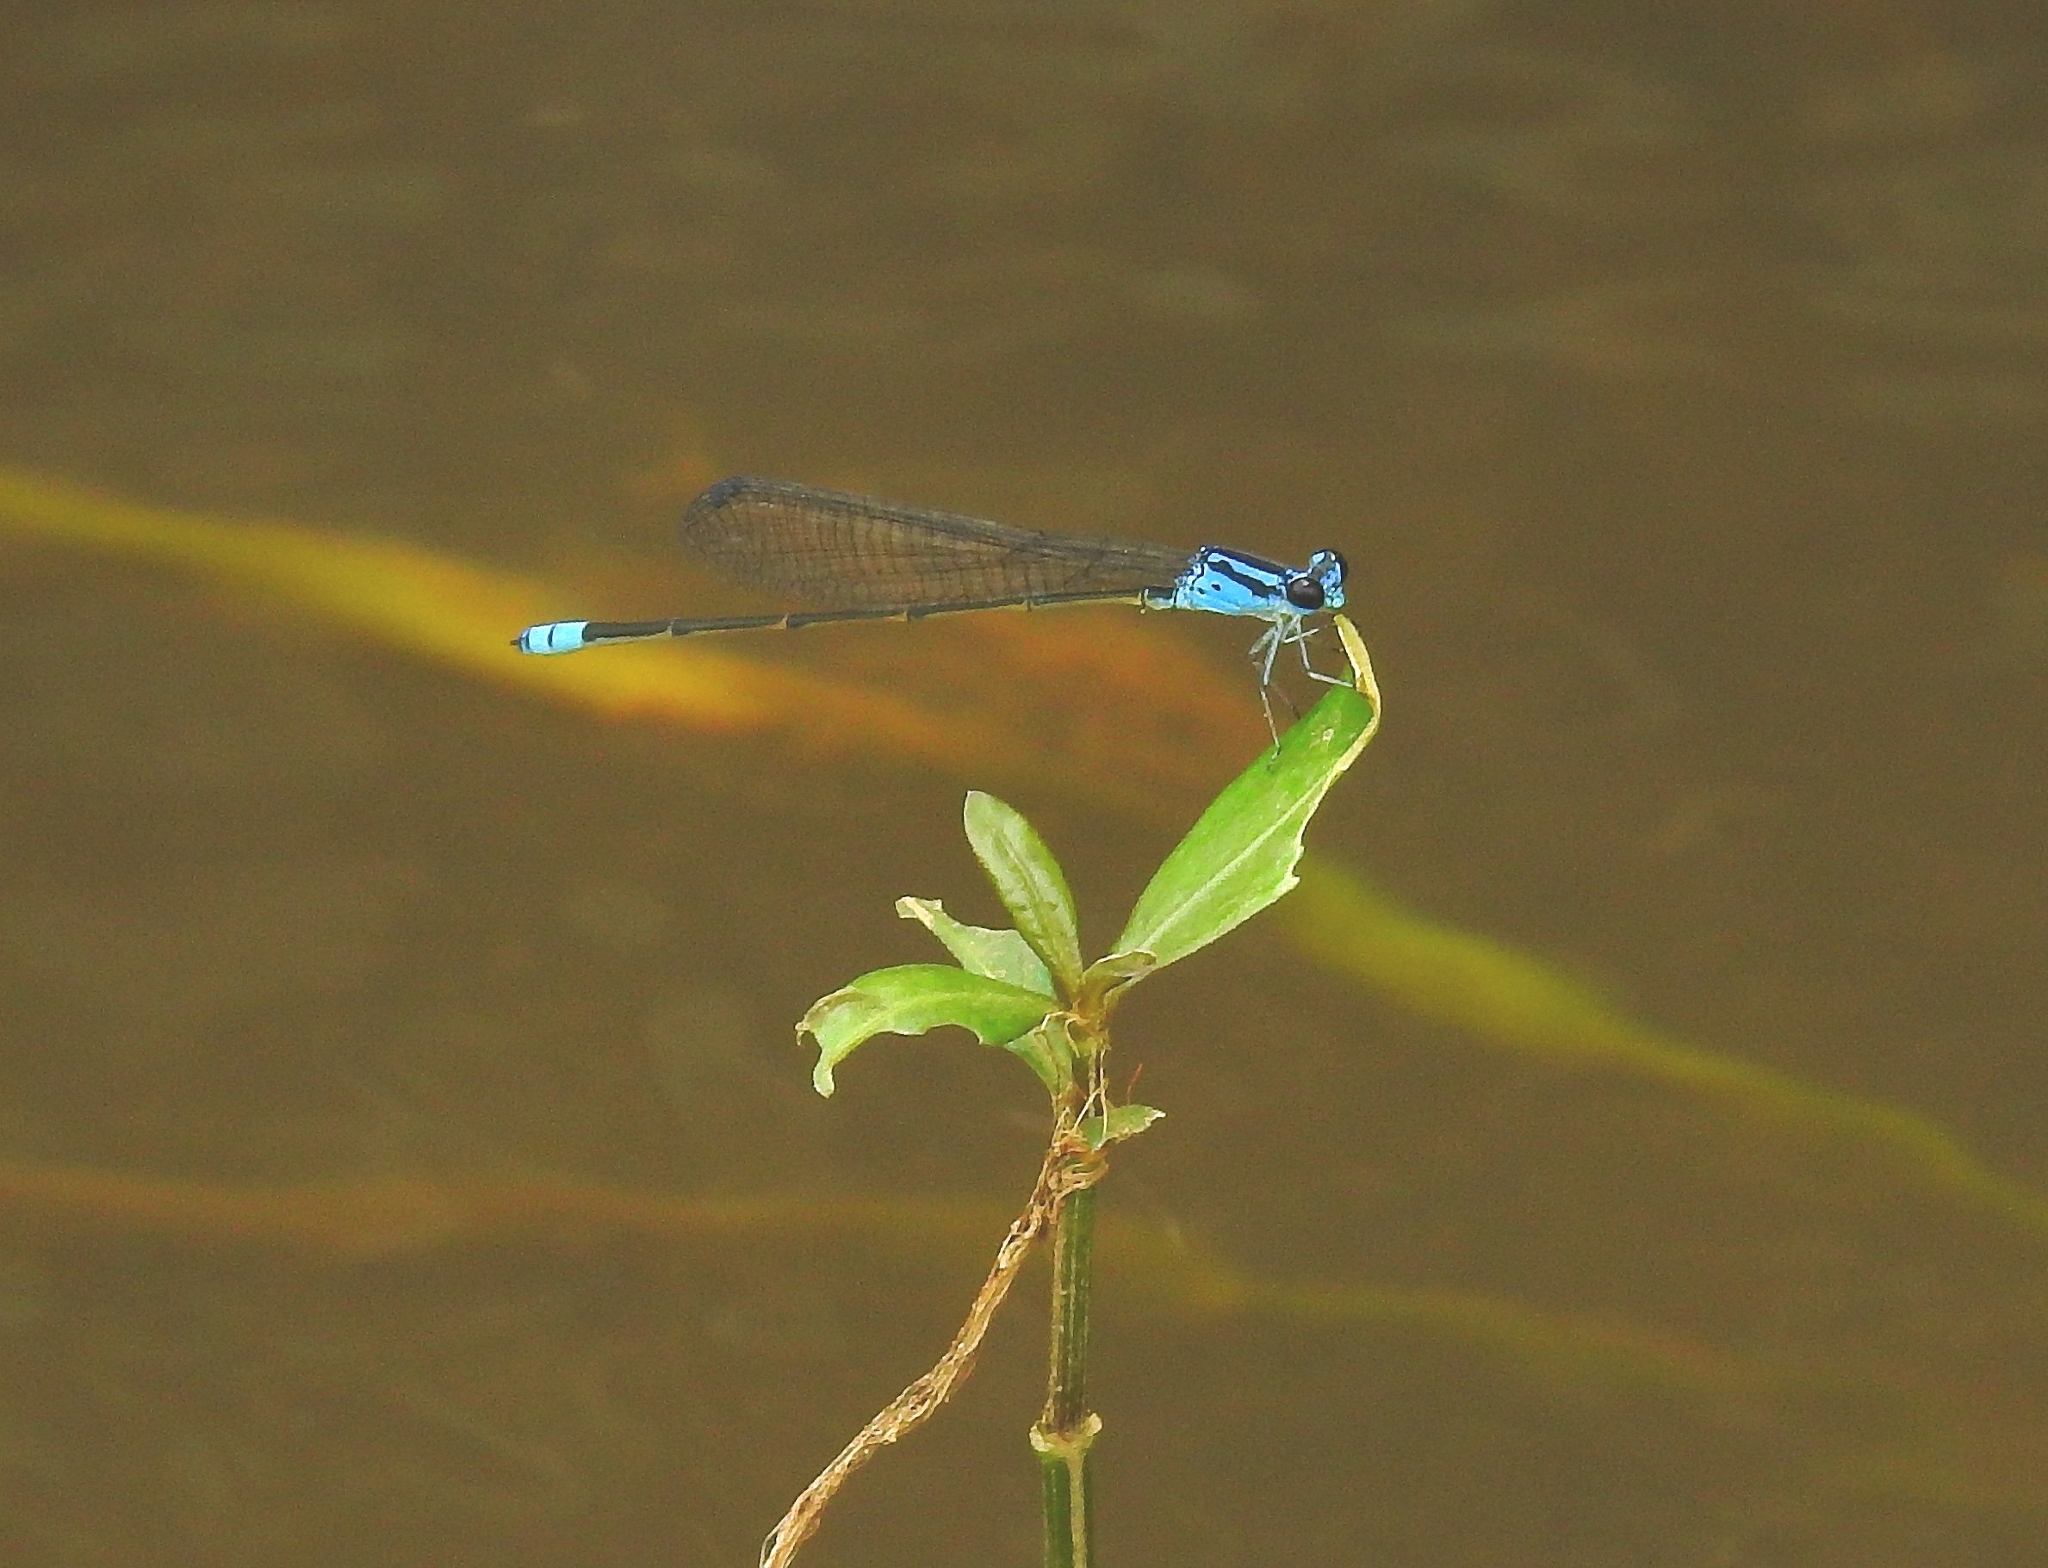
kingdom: Animalia
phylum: Arthropoda
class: Insecta
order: Odonata
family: Coenagrionidae
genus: Archibasis
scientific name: Archibasis oscillans
